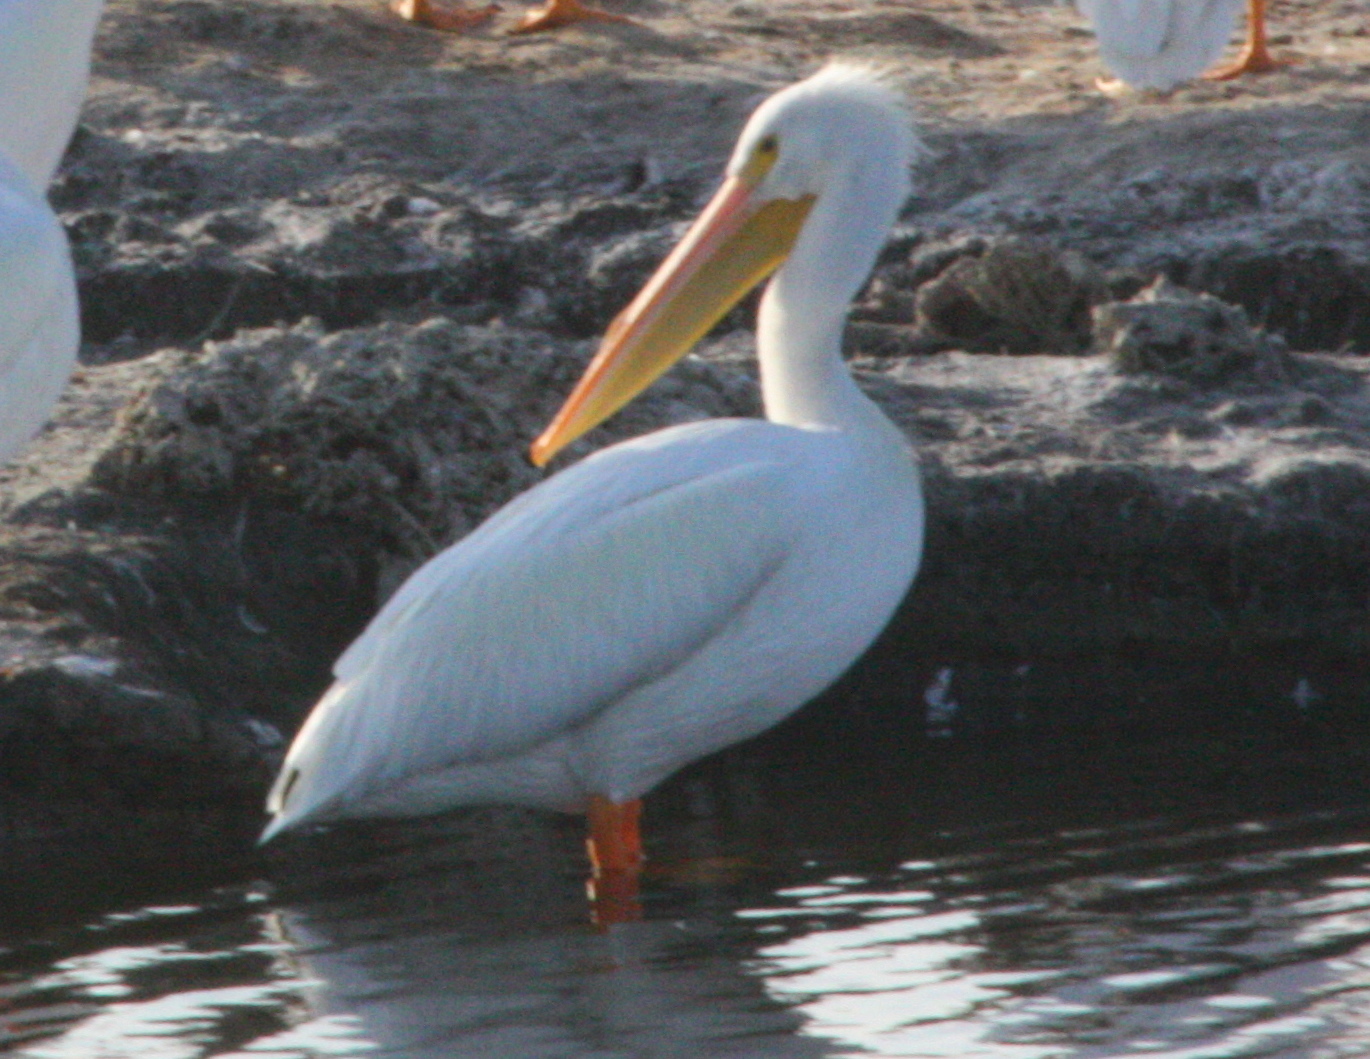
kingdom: Animalia
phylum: Chordata
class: Aves
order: Pelecaniformes
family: Pelecanidae
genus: Pelecanus
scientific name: Pelecanus erythrorhynchos
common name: American white pelican
